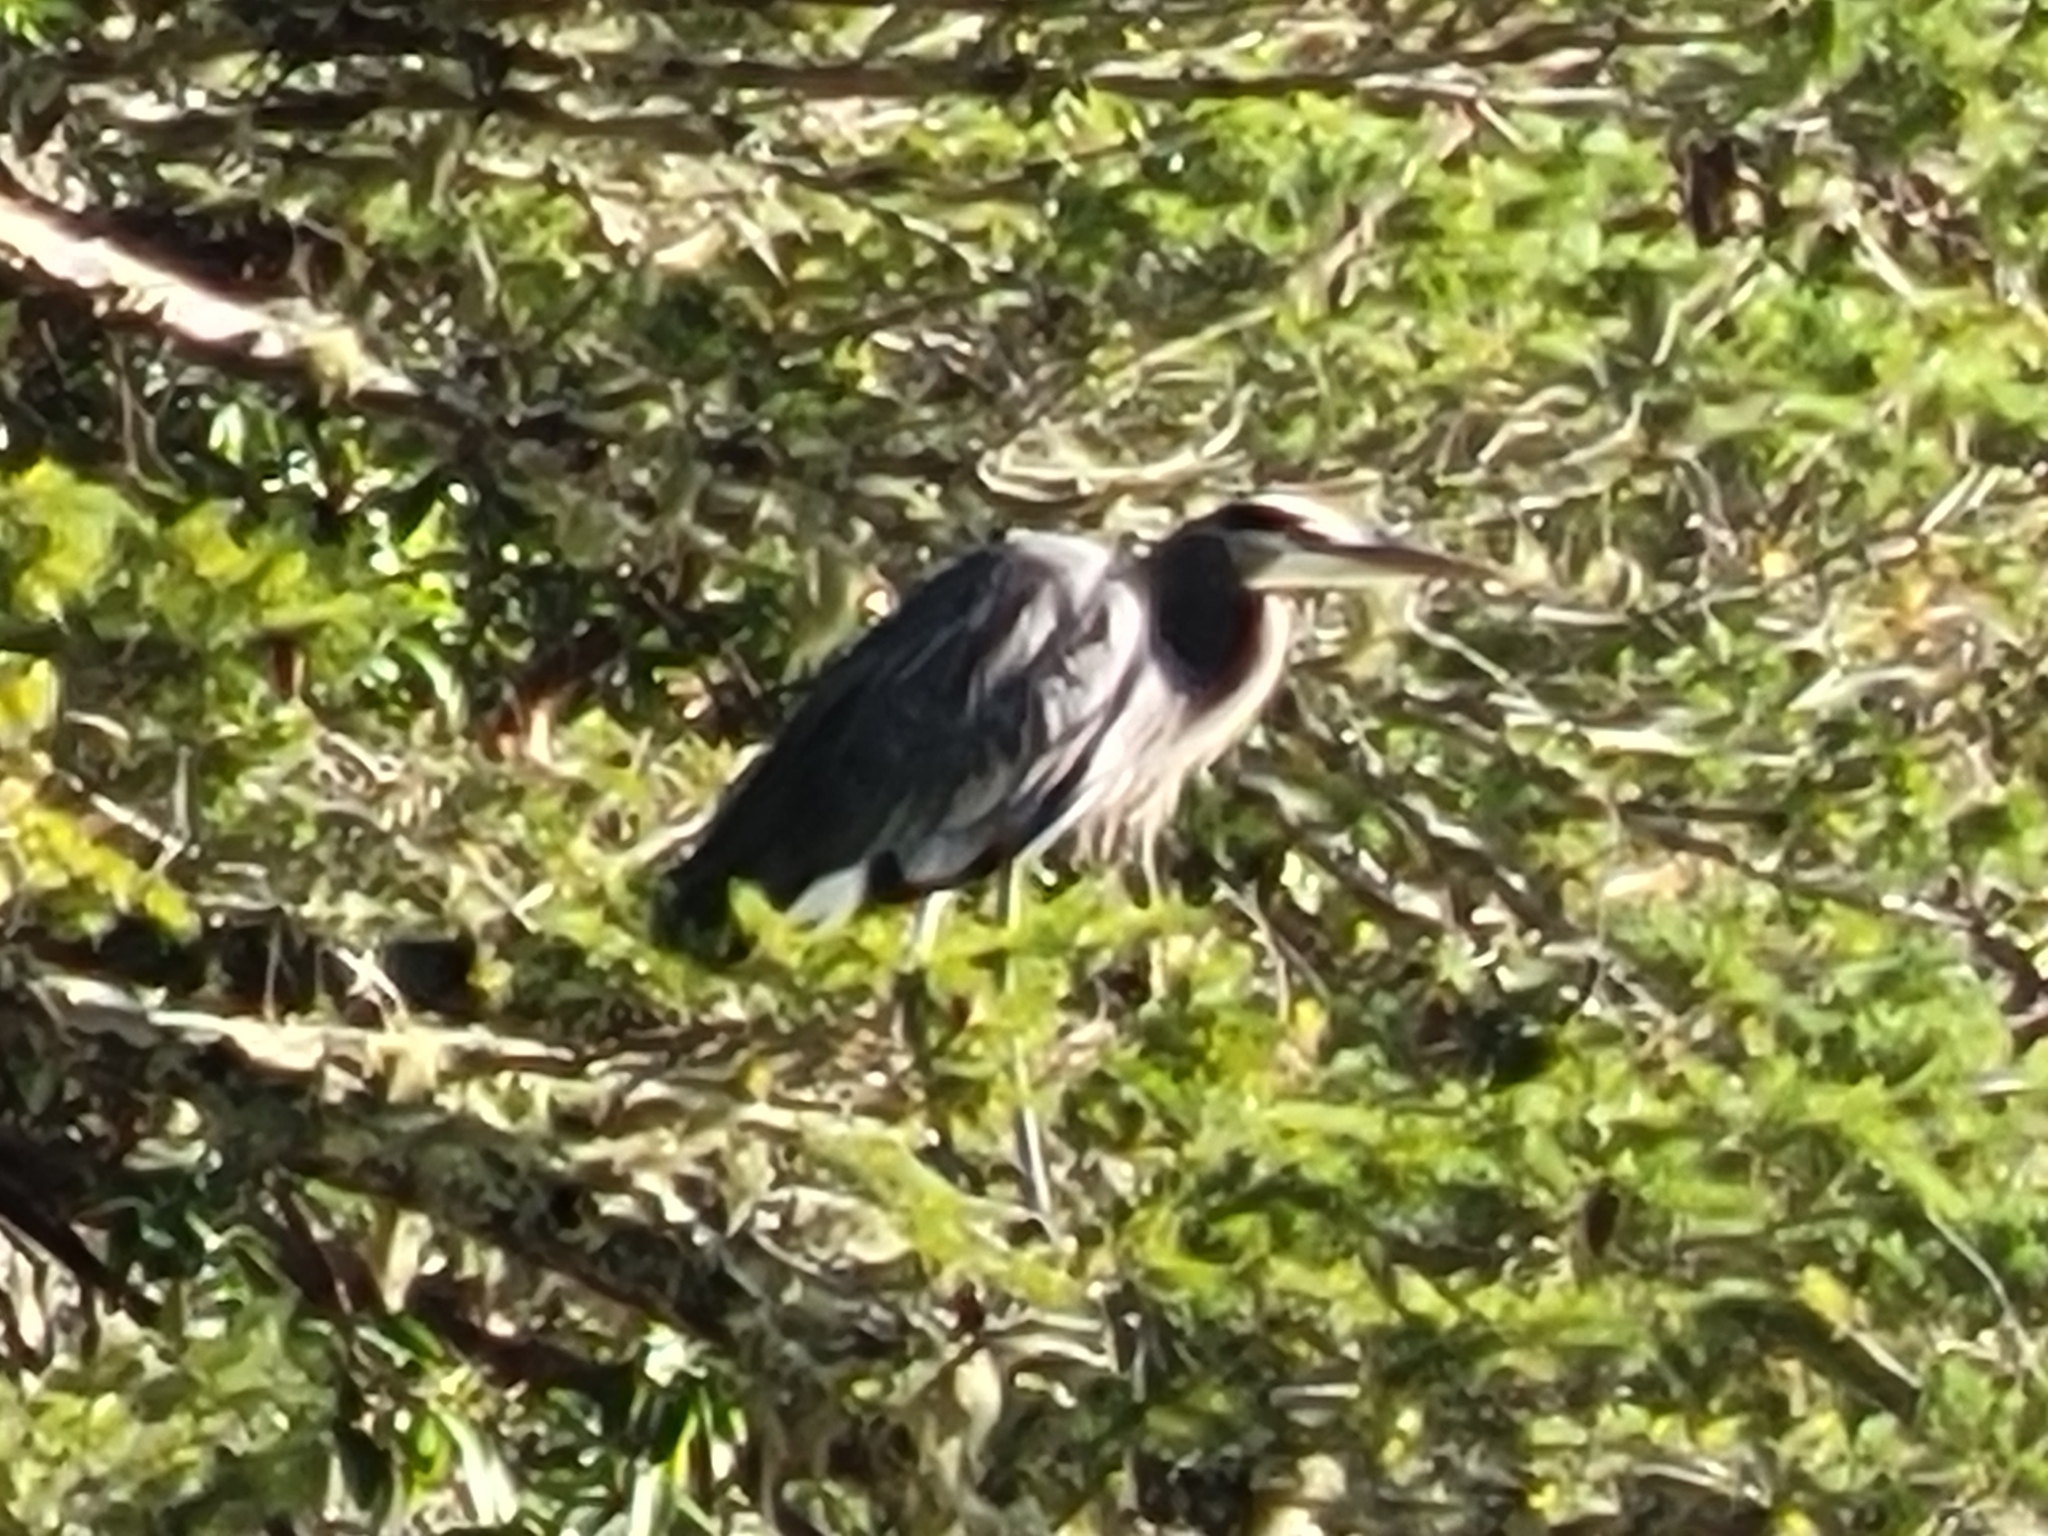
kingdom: Animalia
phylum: Chordata
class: Aves
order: Pelecaniformes
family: Ardeidae
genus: Ardea
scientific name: Ardea herodias
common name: Great blue heron
